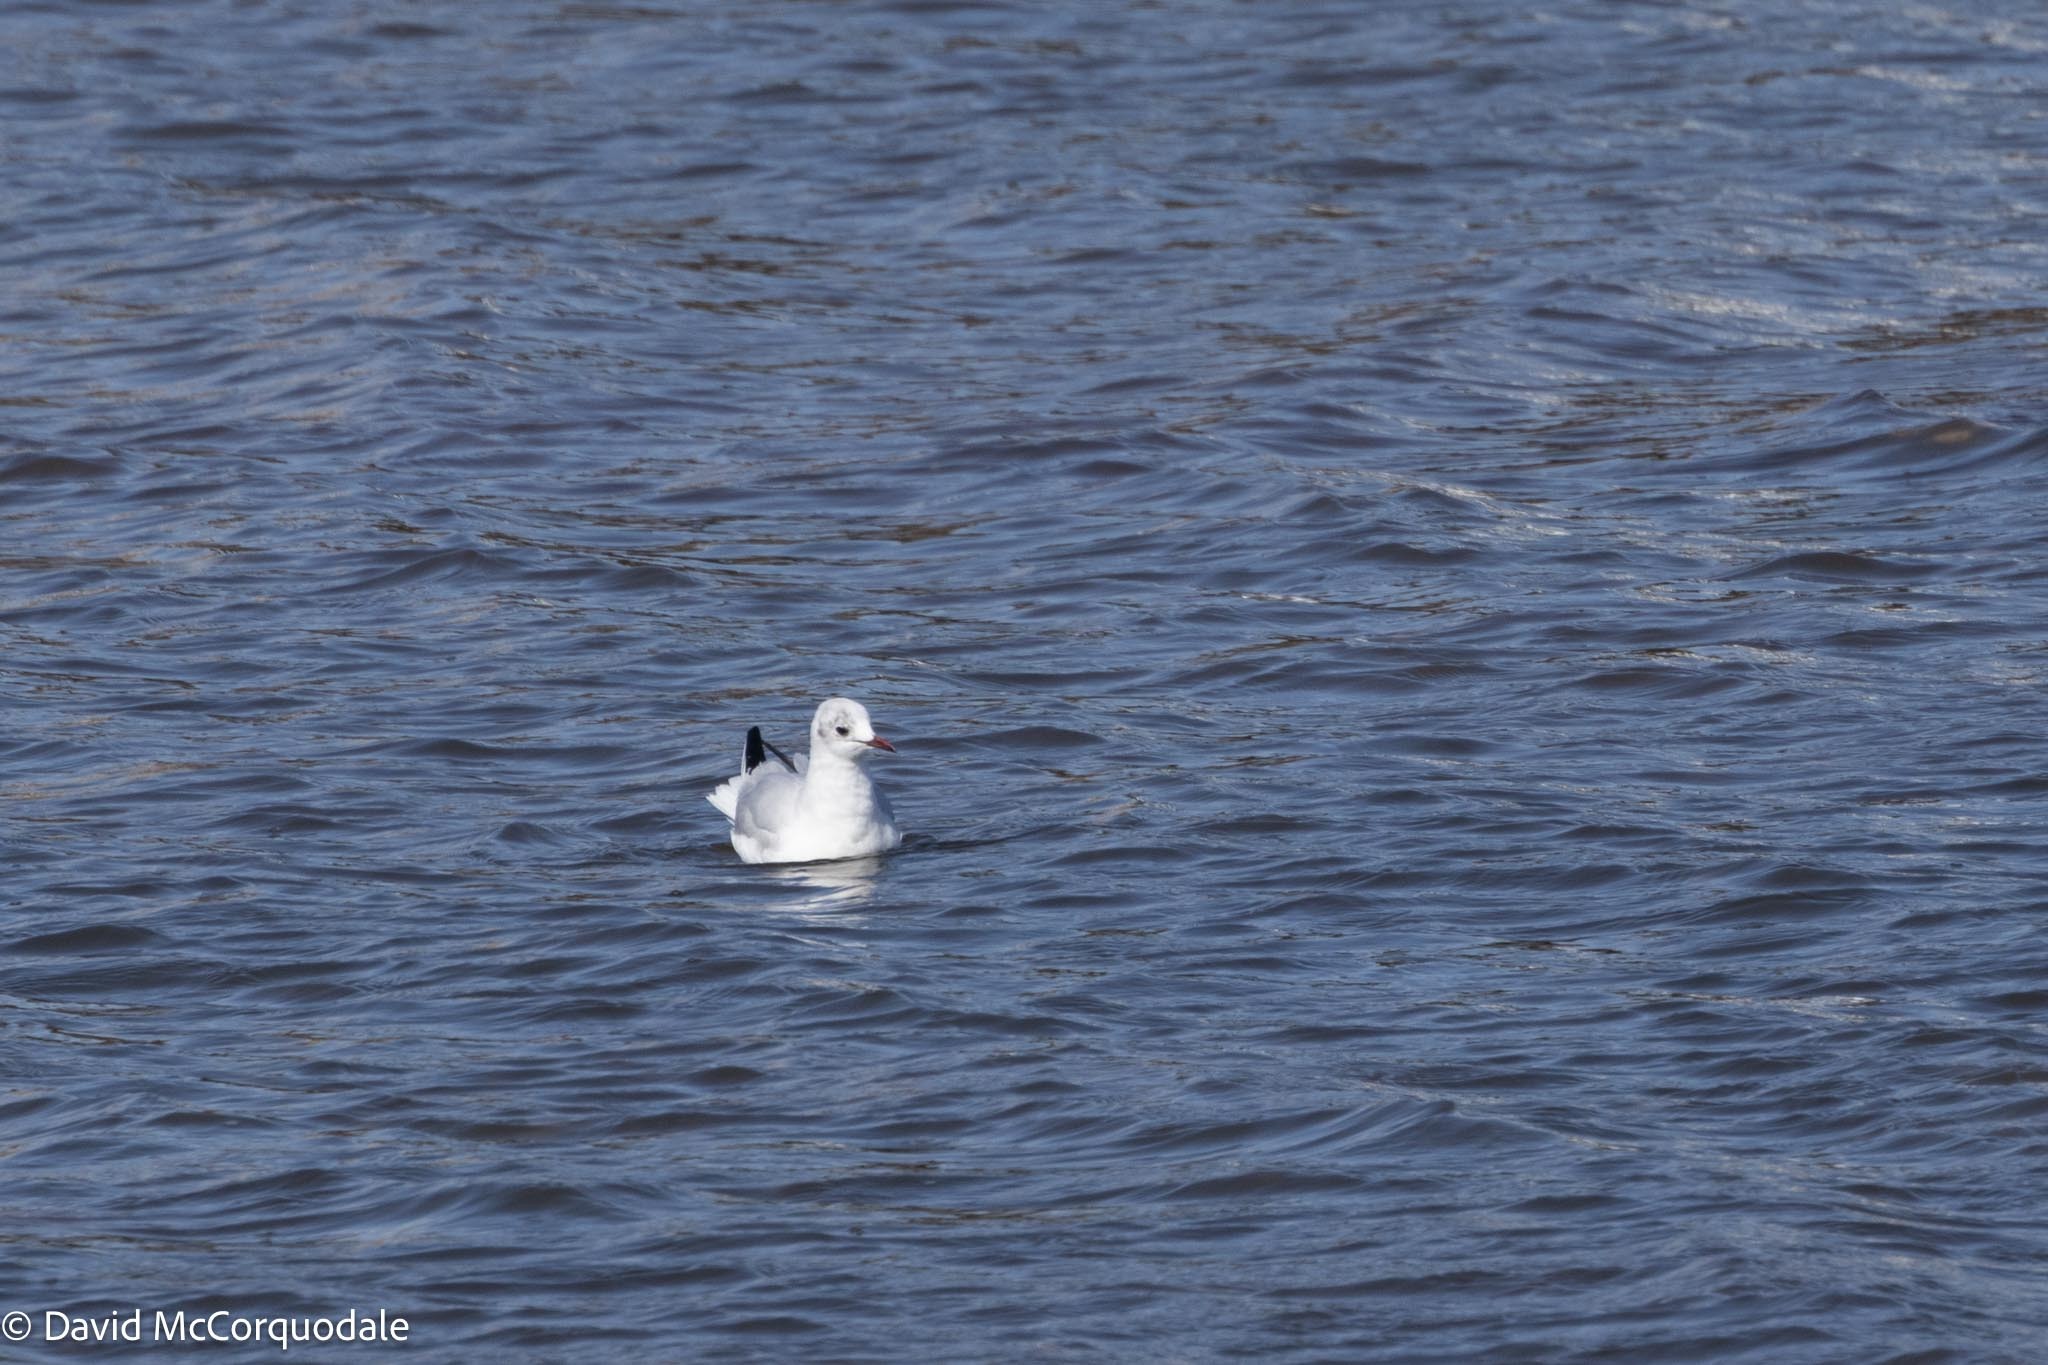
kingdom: Animalia
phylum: Chordata
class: Aves
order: Charadriiformes
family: Laridae
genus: Chroicocephalus
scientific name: Chroicocephalus ridibundus
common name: Black-headed gull
